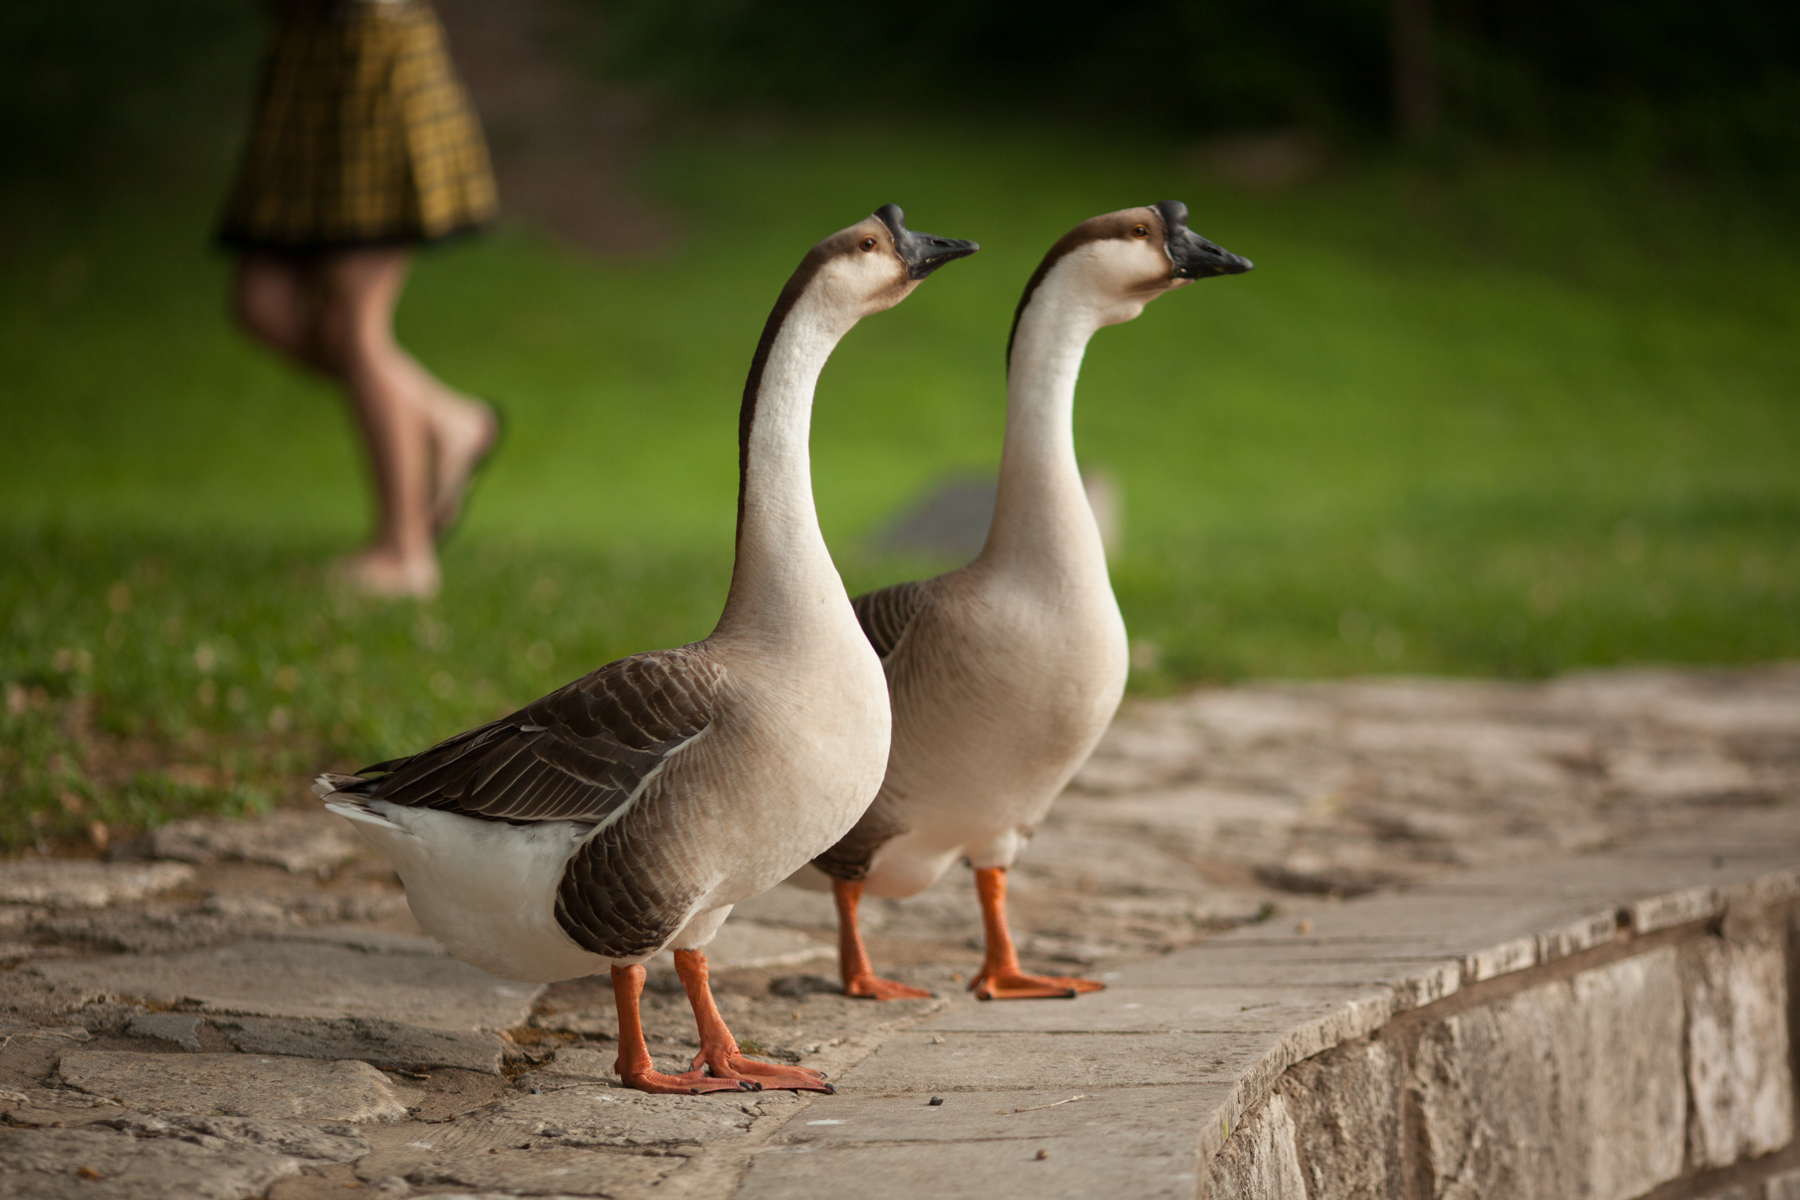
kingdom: Animalia
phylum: Chordata
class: Aves
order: Anseriformes
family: Anatidae
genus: Anser
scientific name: Anser cygnoides
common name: Swan goose
